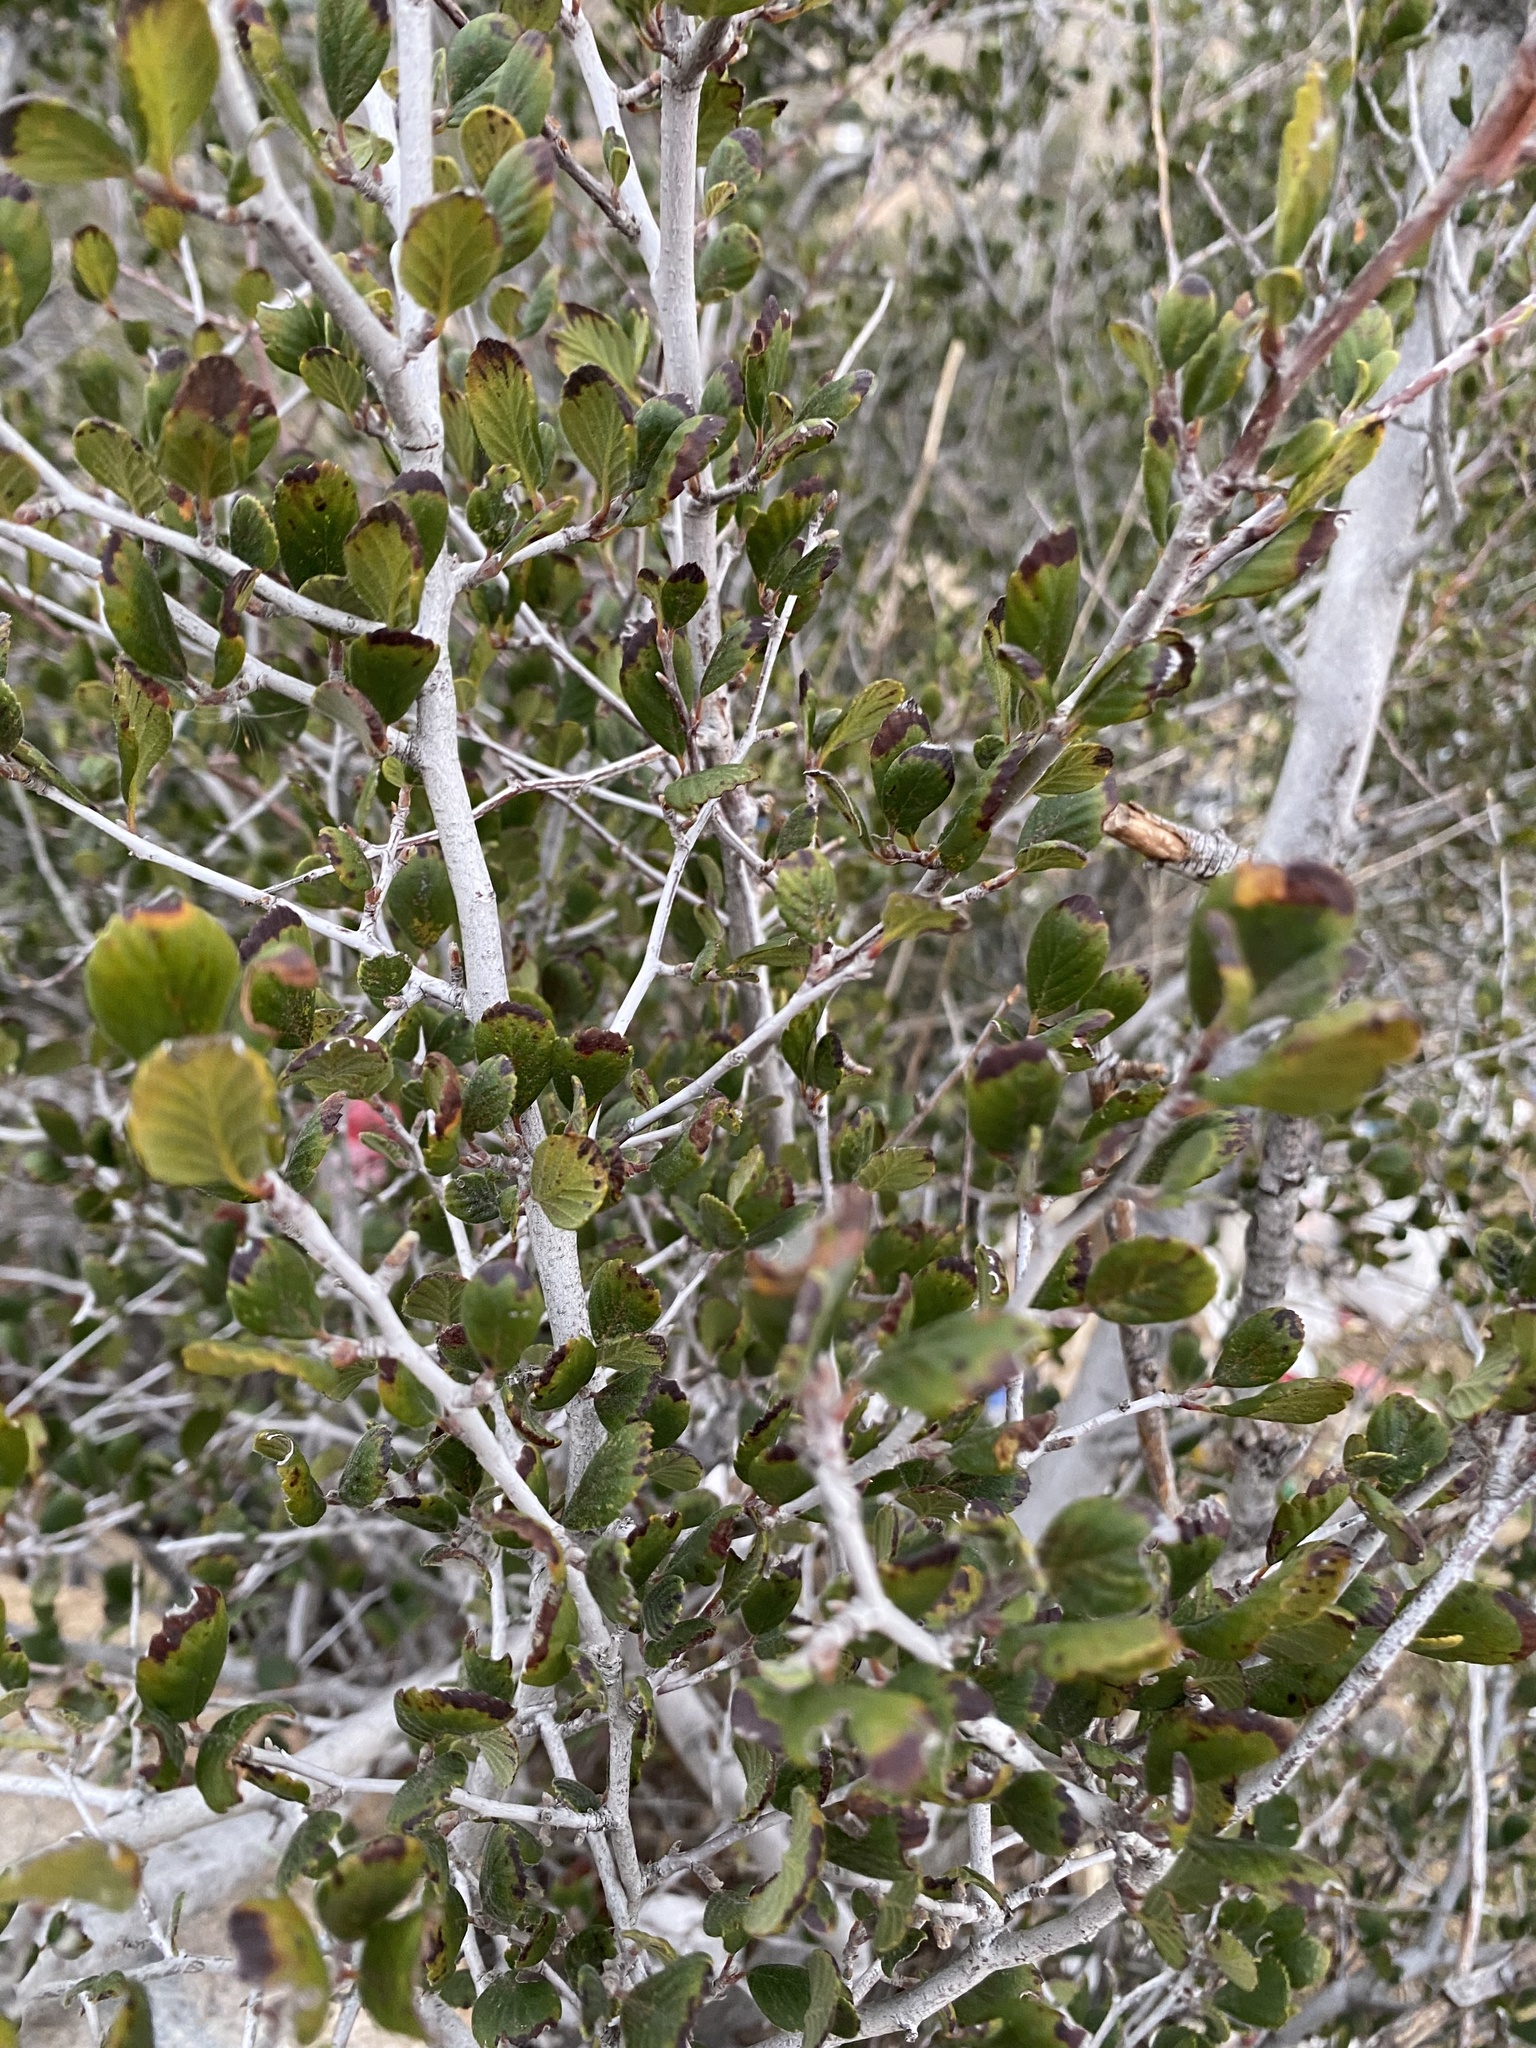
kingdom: Plantae
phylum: Tracheophyta
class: Magnoliopsida
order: Rosales
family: Rosaceae
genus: Cercocarpus
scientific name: Cercocarpus betuloides
